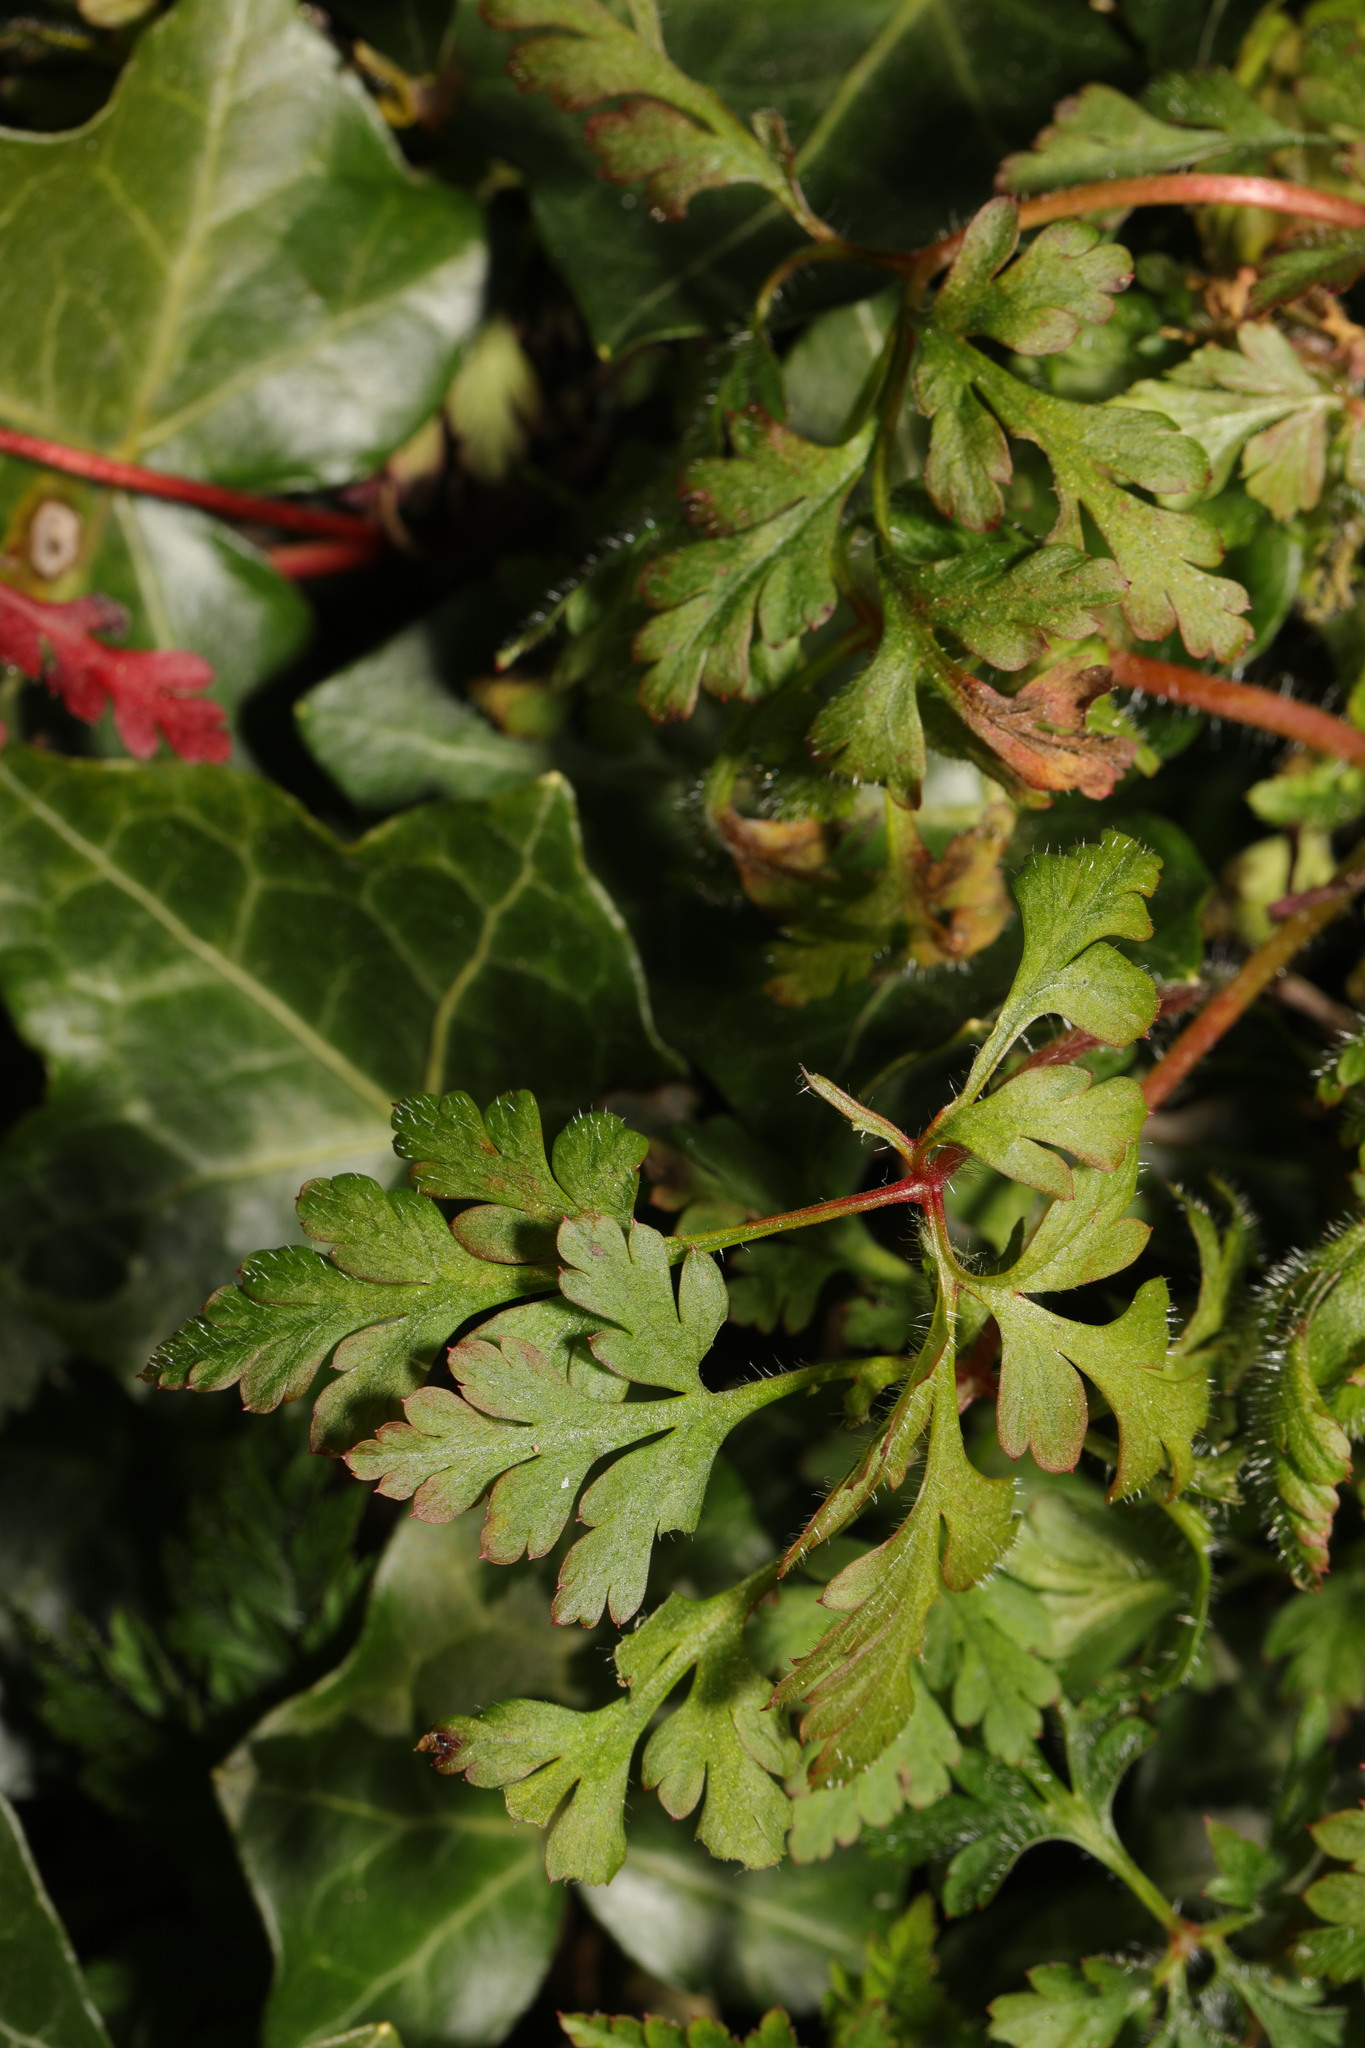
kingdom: Plantae
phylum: Tracheophyta
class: Magnoliopsida
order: Geraniales
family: Geraniaceae
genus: Geranium
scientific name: Geranium robertianum
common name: Herb-robert
